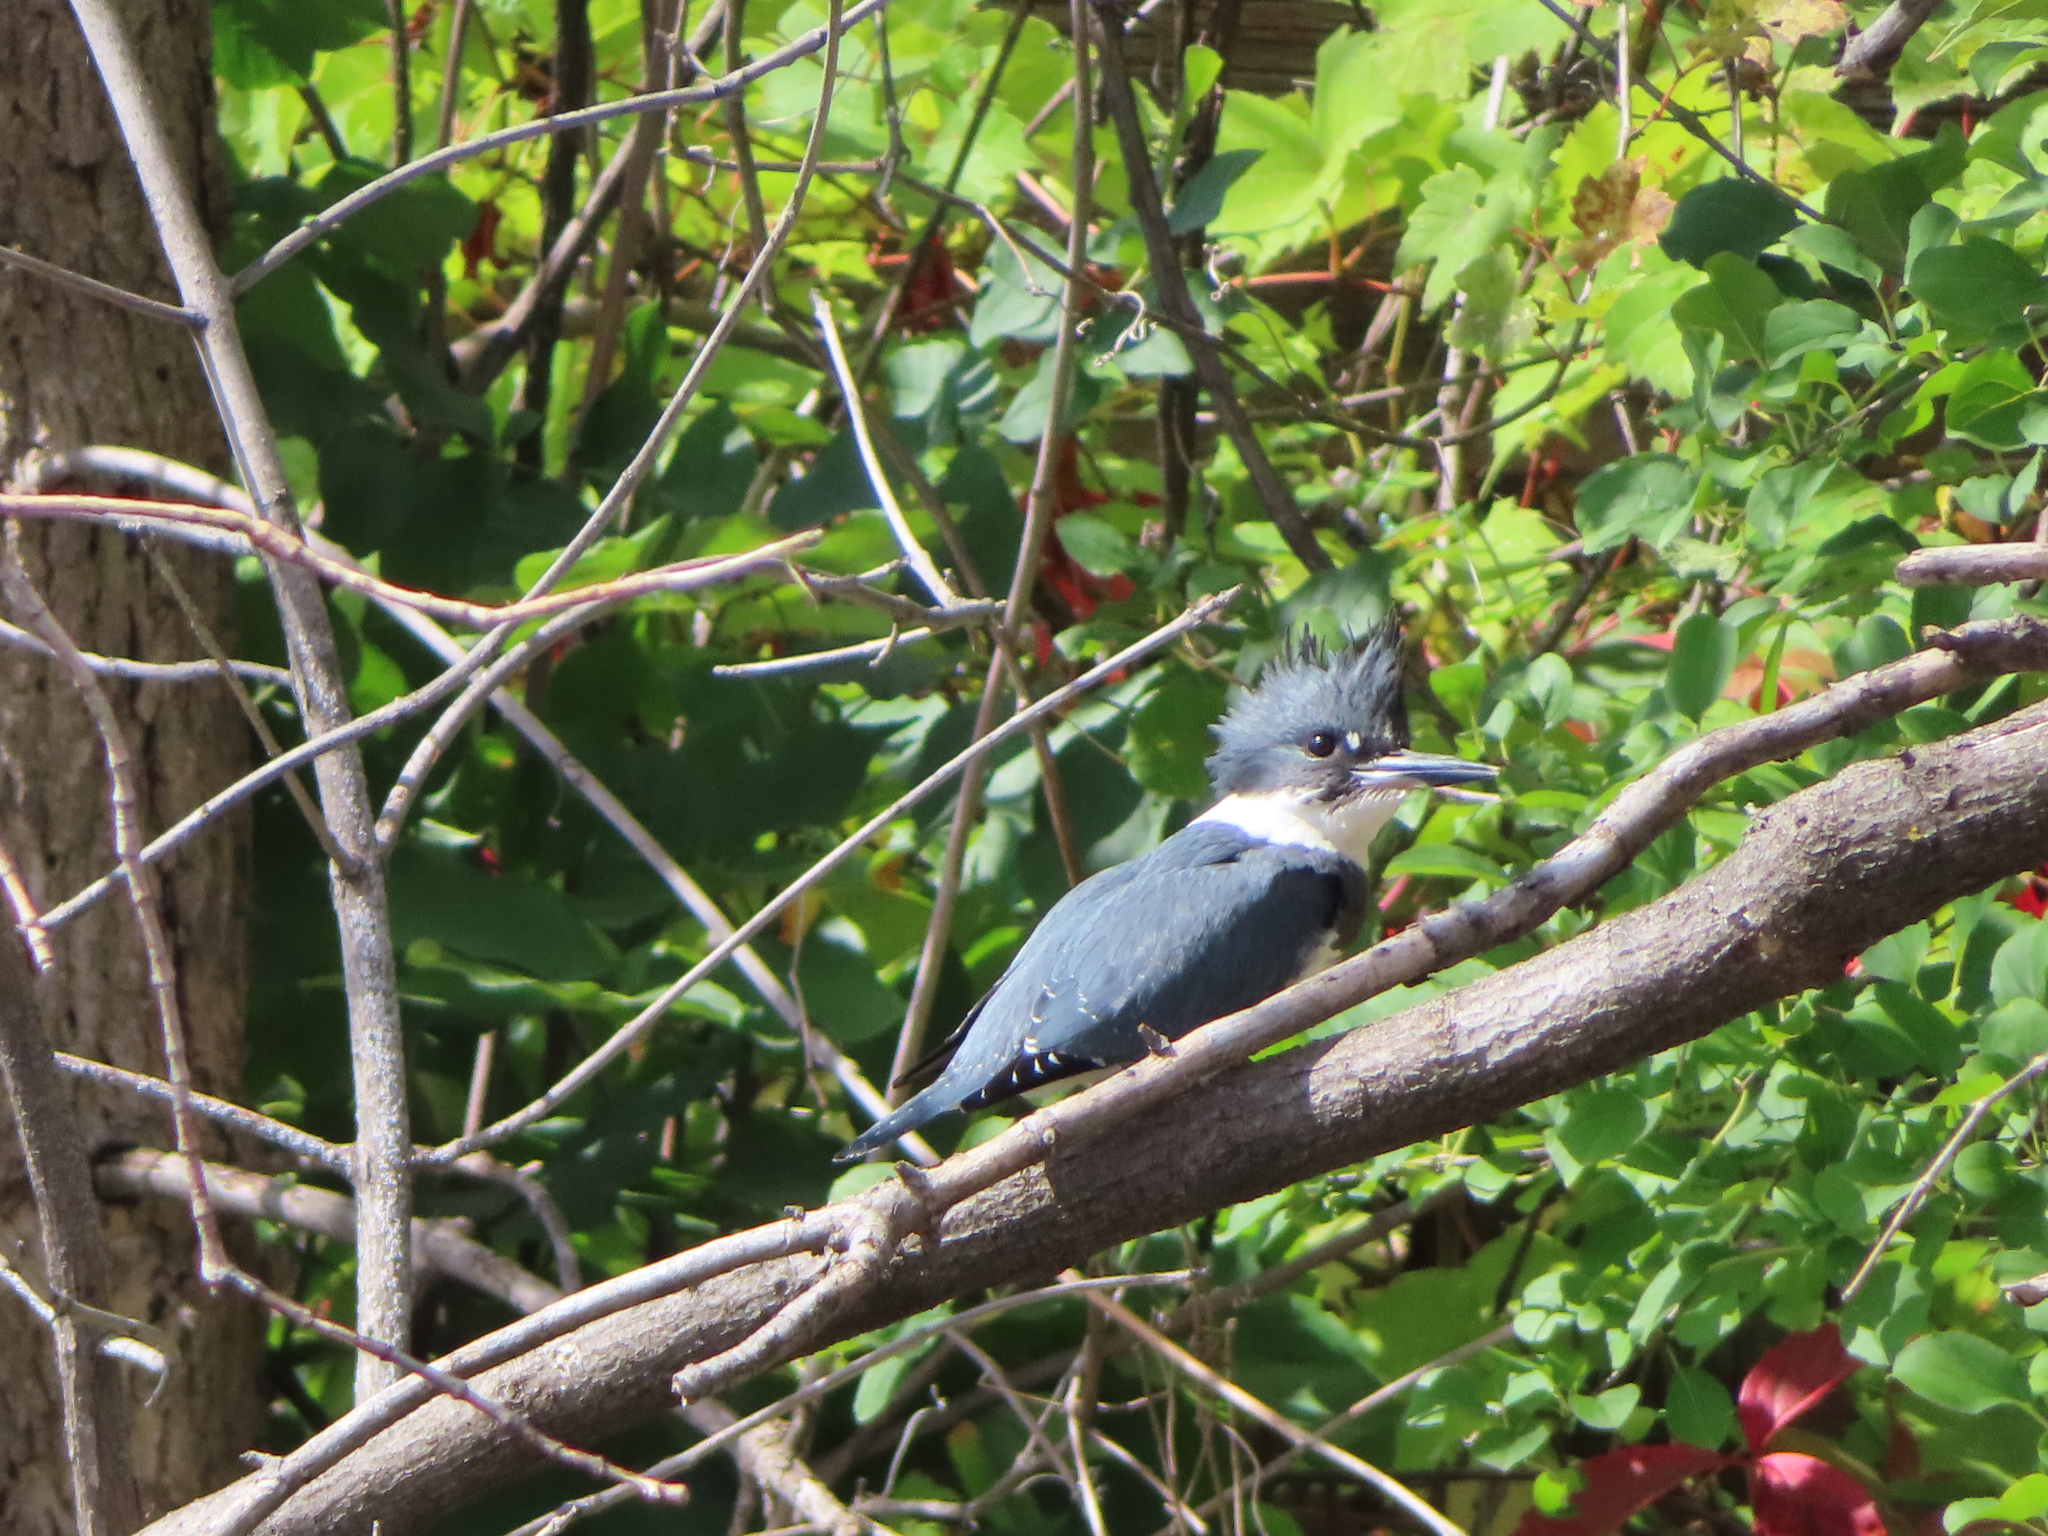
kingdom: Animalia
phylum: Chordata
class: Aves
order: Coraciiformes
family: Alcedinidae
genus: Megaceryle
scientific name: Megaceryle alcyon
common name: Belted kingfisher
